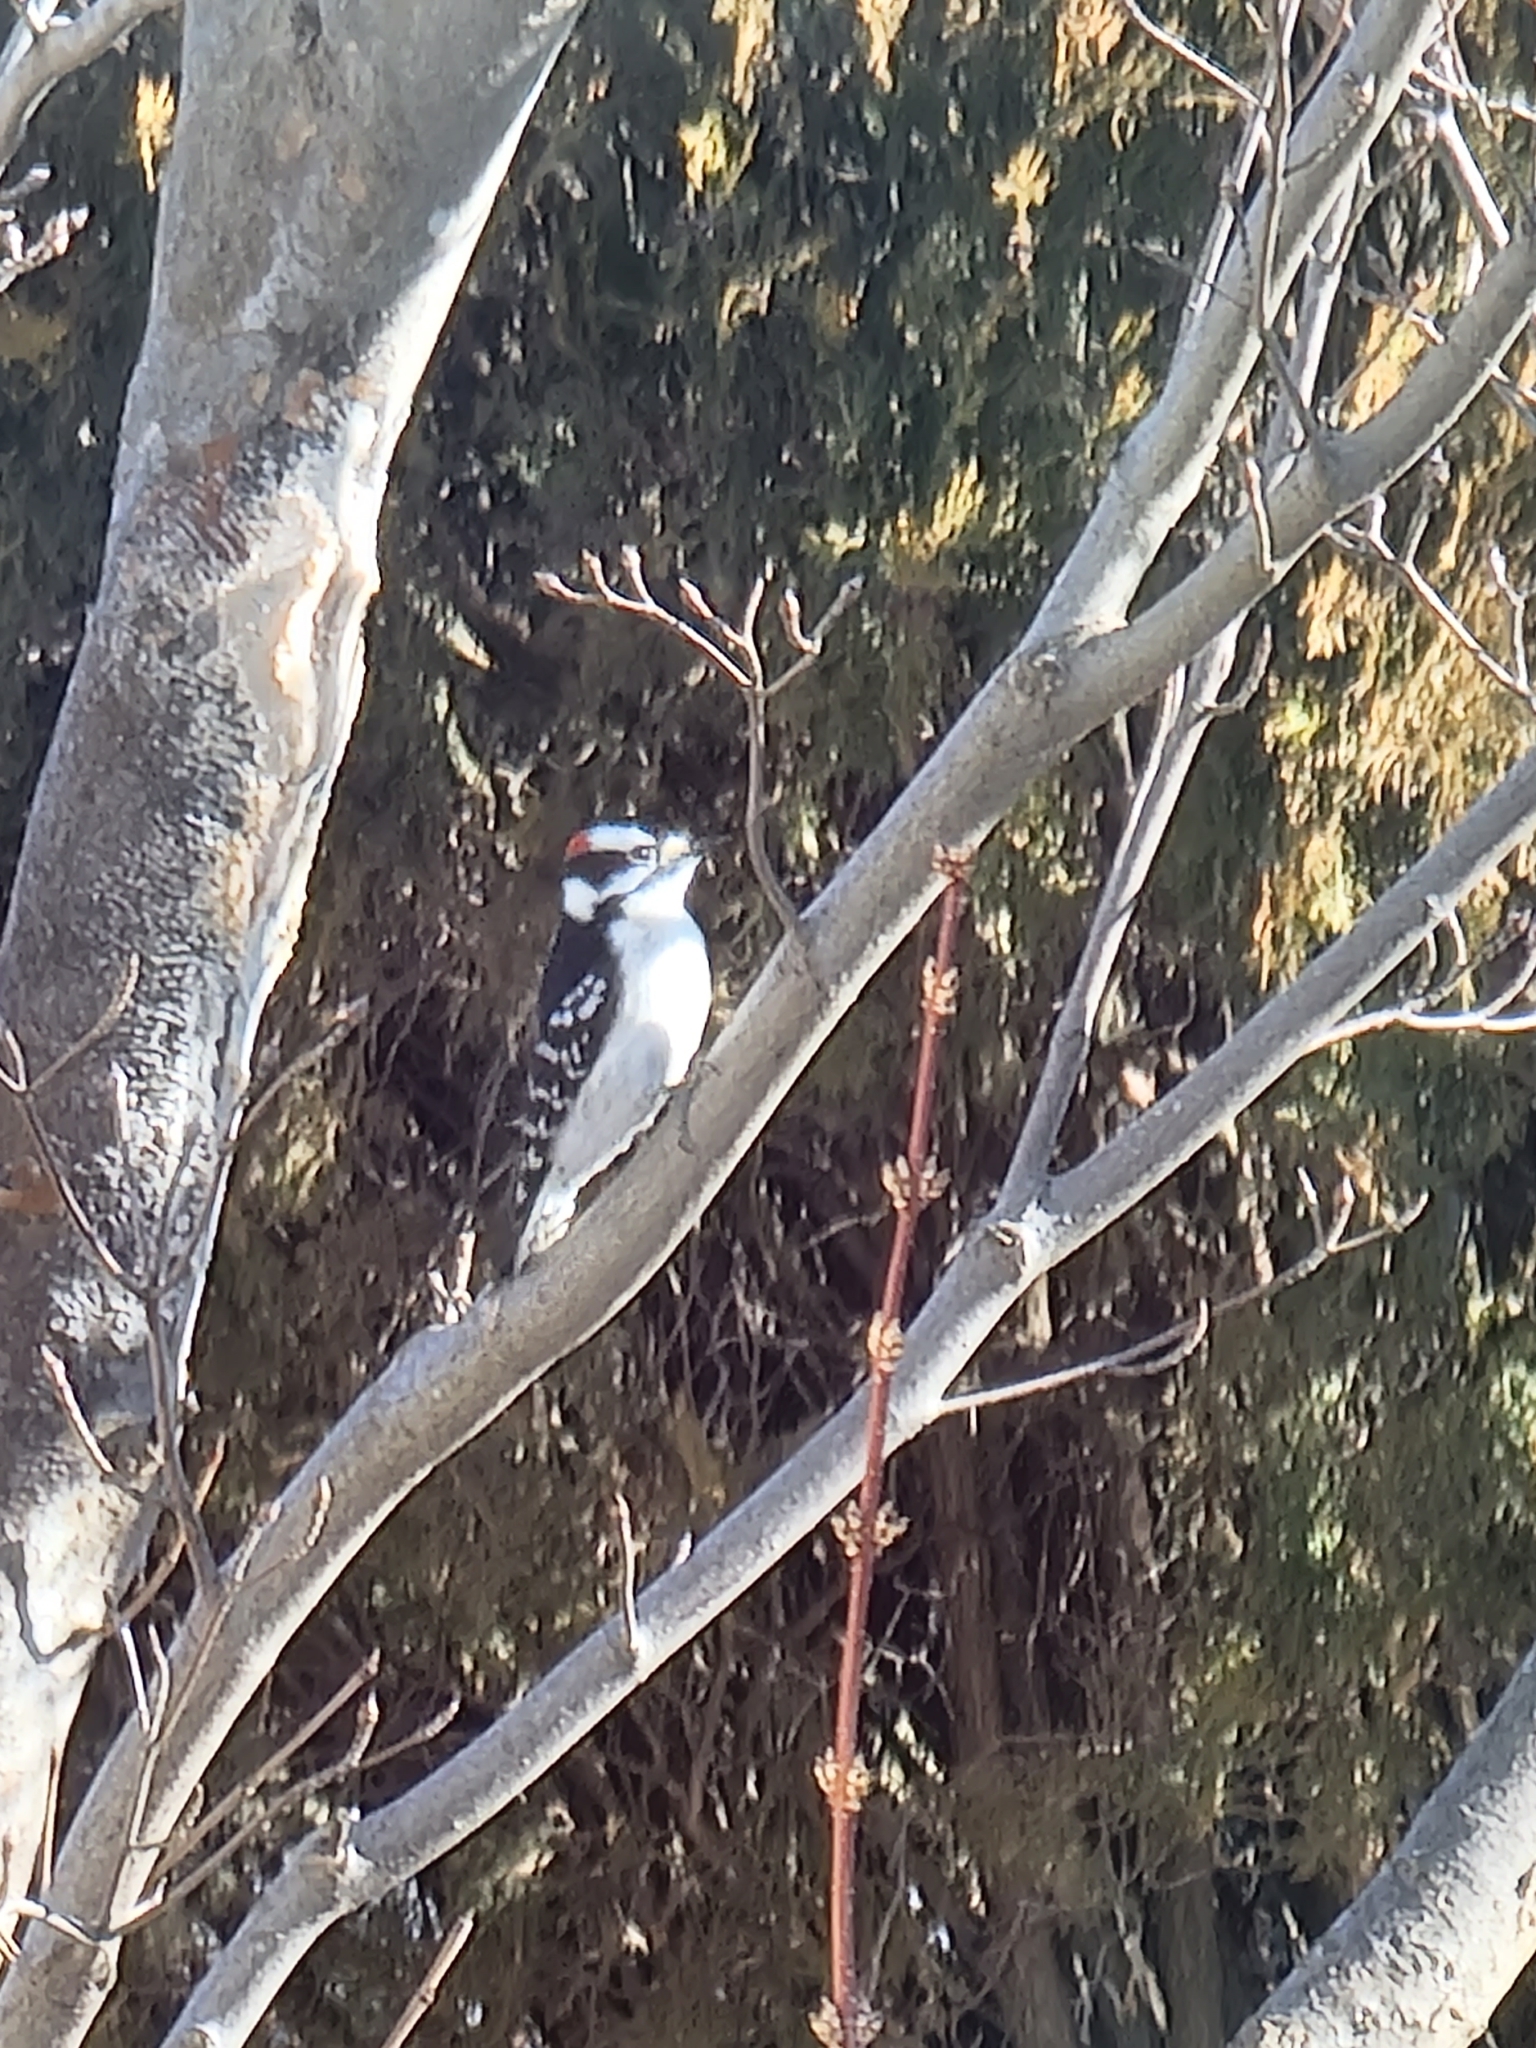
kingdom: Animalia
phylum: Chordata
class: Aves
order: Piciformes
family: Picidae
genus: Dryobates
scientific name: Dryobates pubescens
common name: Downy woodpecker
